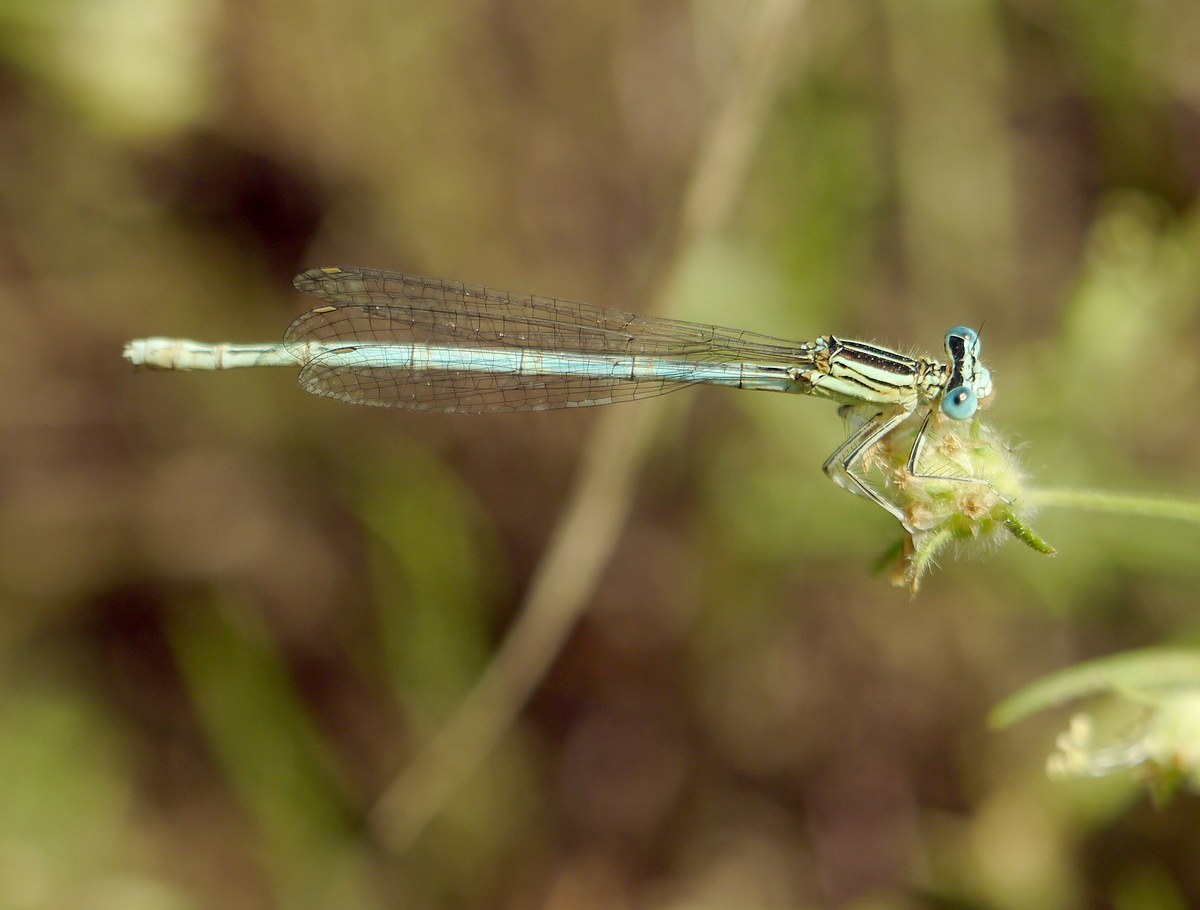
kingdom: Animalia
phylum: Arthropoda
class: Insecta
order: Odonata
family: Platycnemididae
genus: Platycnemis
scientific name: Platycnemis pennipes
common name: White-legged damselfly
